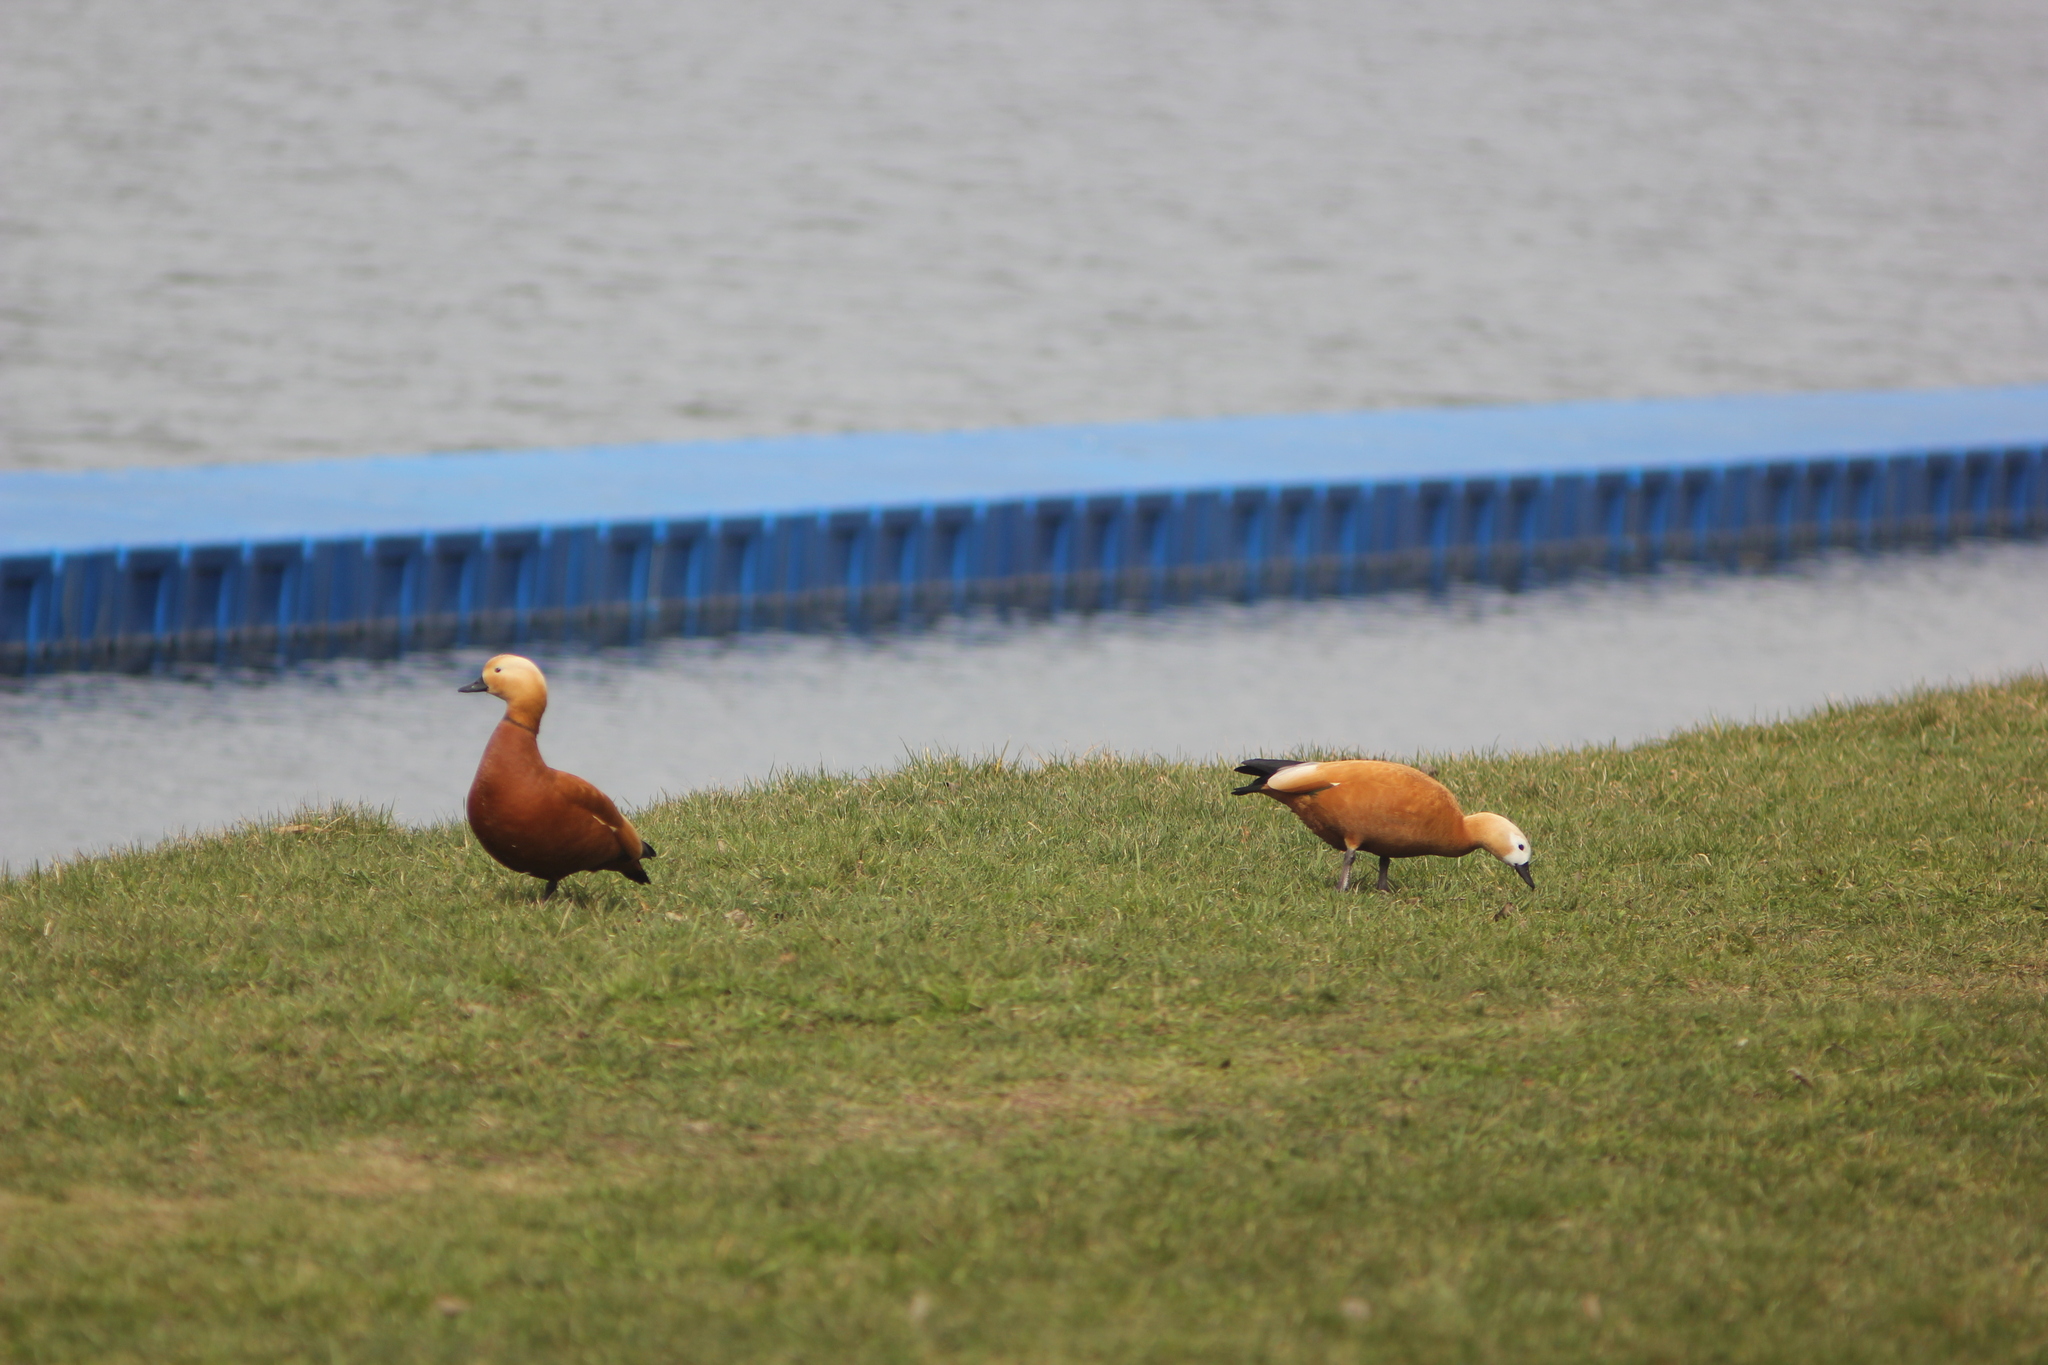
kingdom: Animalia
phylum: Chordata
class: Aves
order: Anseriformes
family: Anatidae
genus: Tadorna
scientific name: Tadorna ferruginea
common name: Ruddy shelduck
